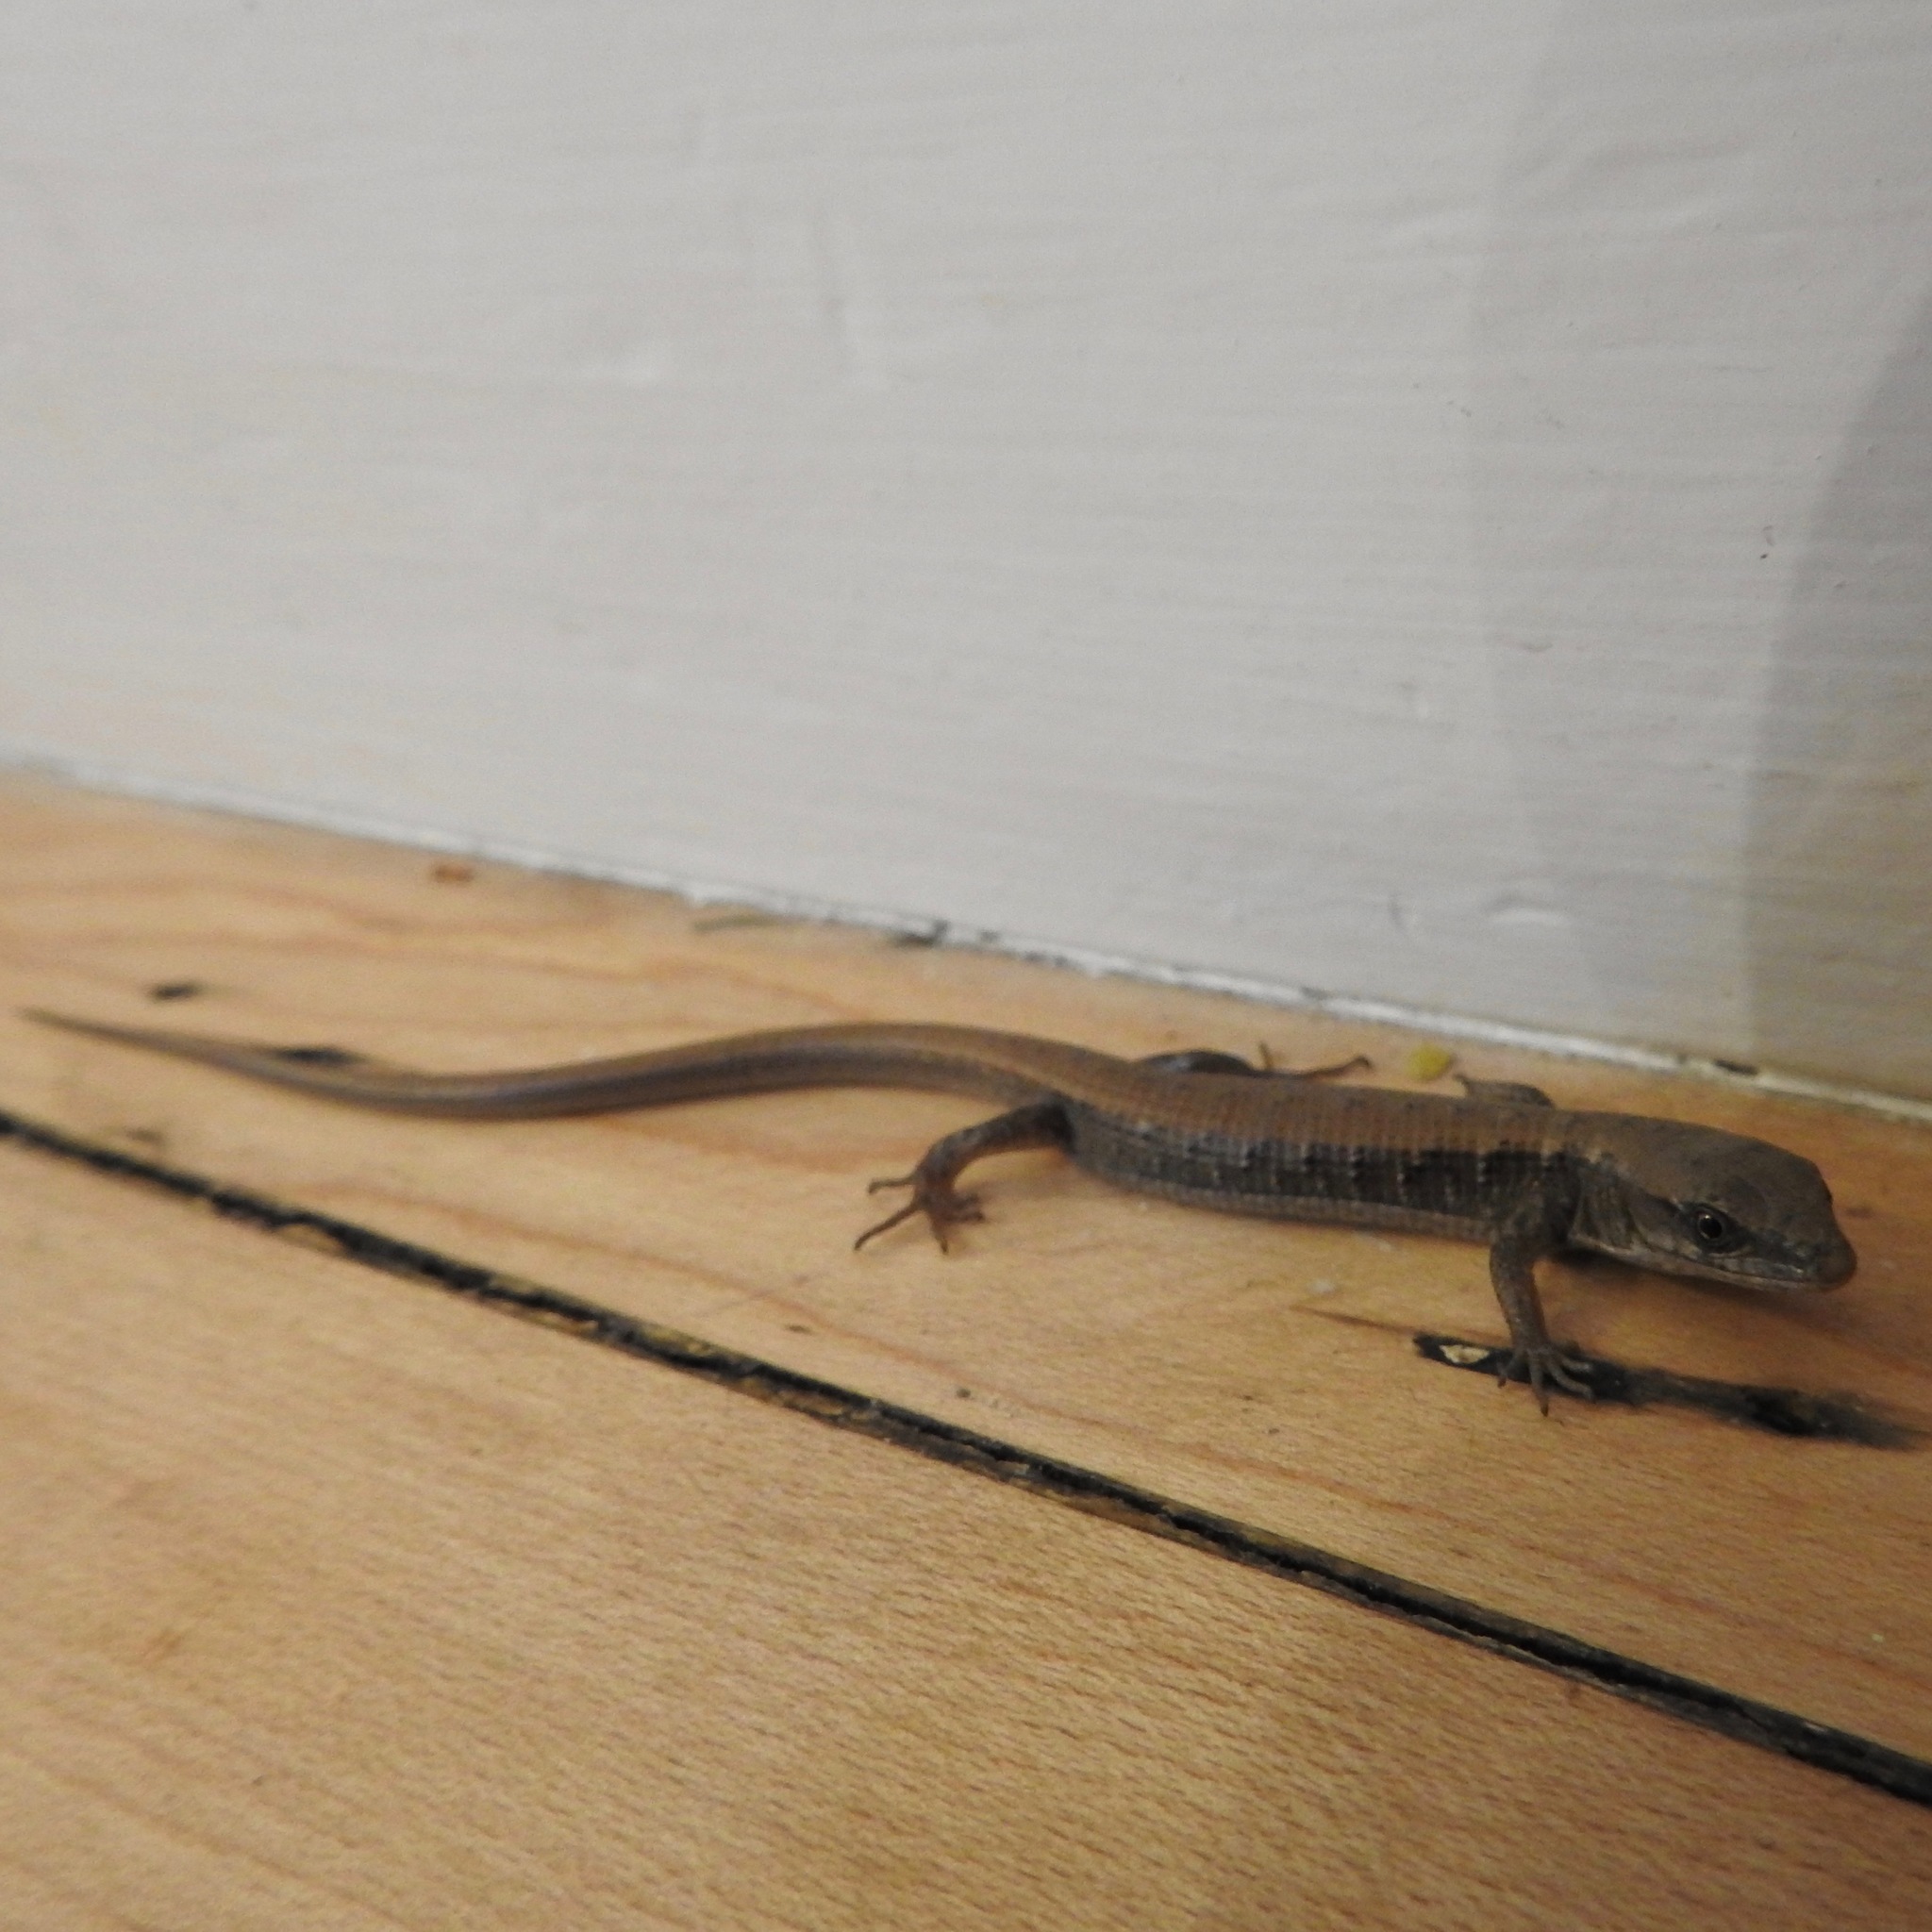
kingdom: Animalia
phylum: Chordata
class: Squamata
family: Anguidae
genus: Elgaria
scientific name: Elgaria multicarinata
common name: Southern alligator lizard
